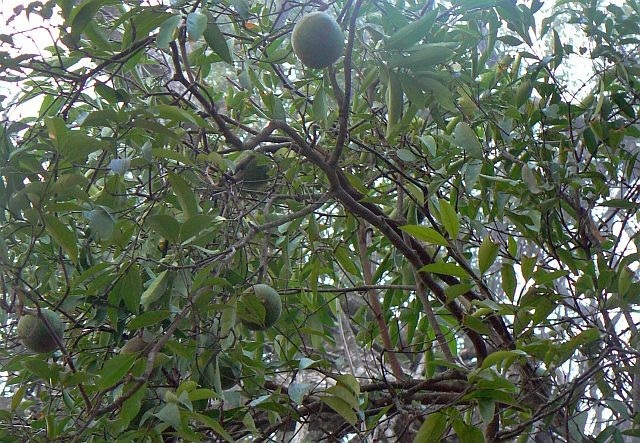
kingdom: Plantae
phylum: Tracheophyta
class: Magnoliopsida
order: Gentianales
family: Rubiaceae
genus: Rothmannia
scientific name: Rothmannia fischeri
